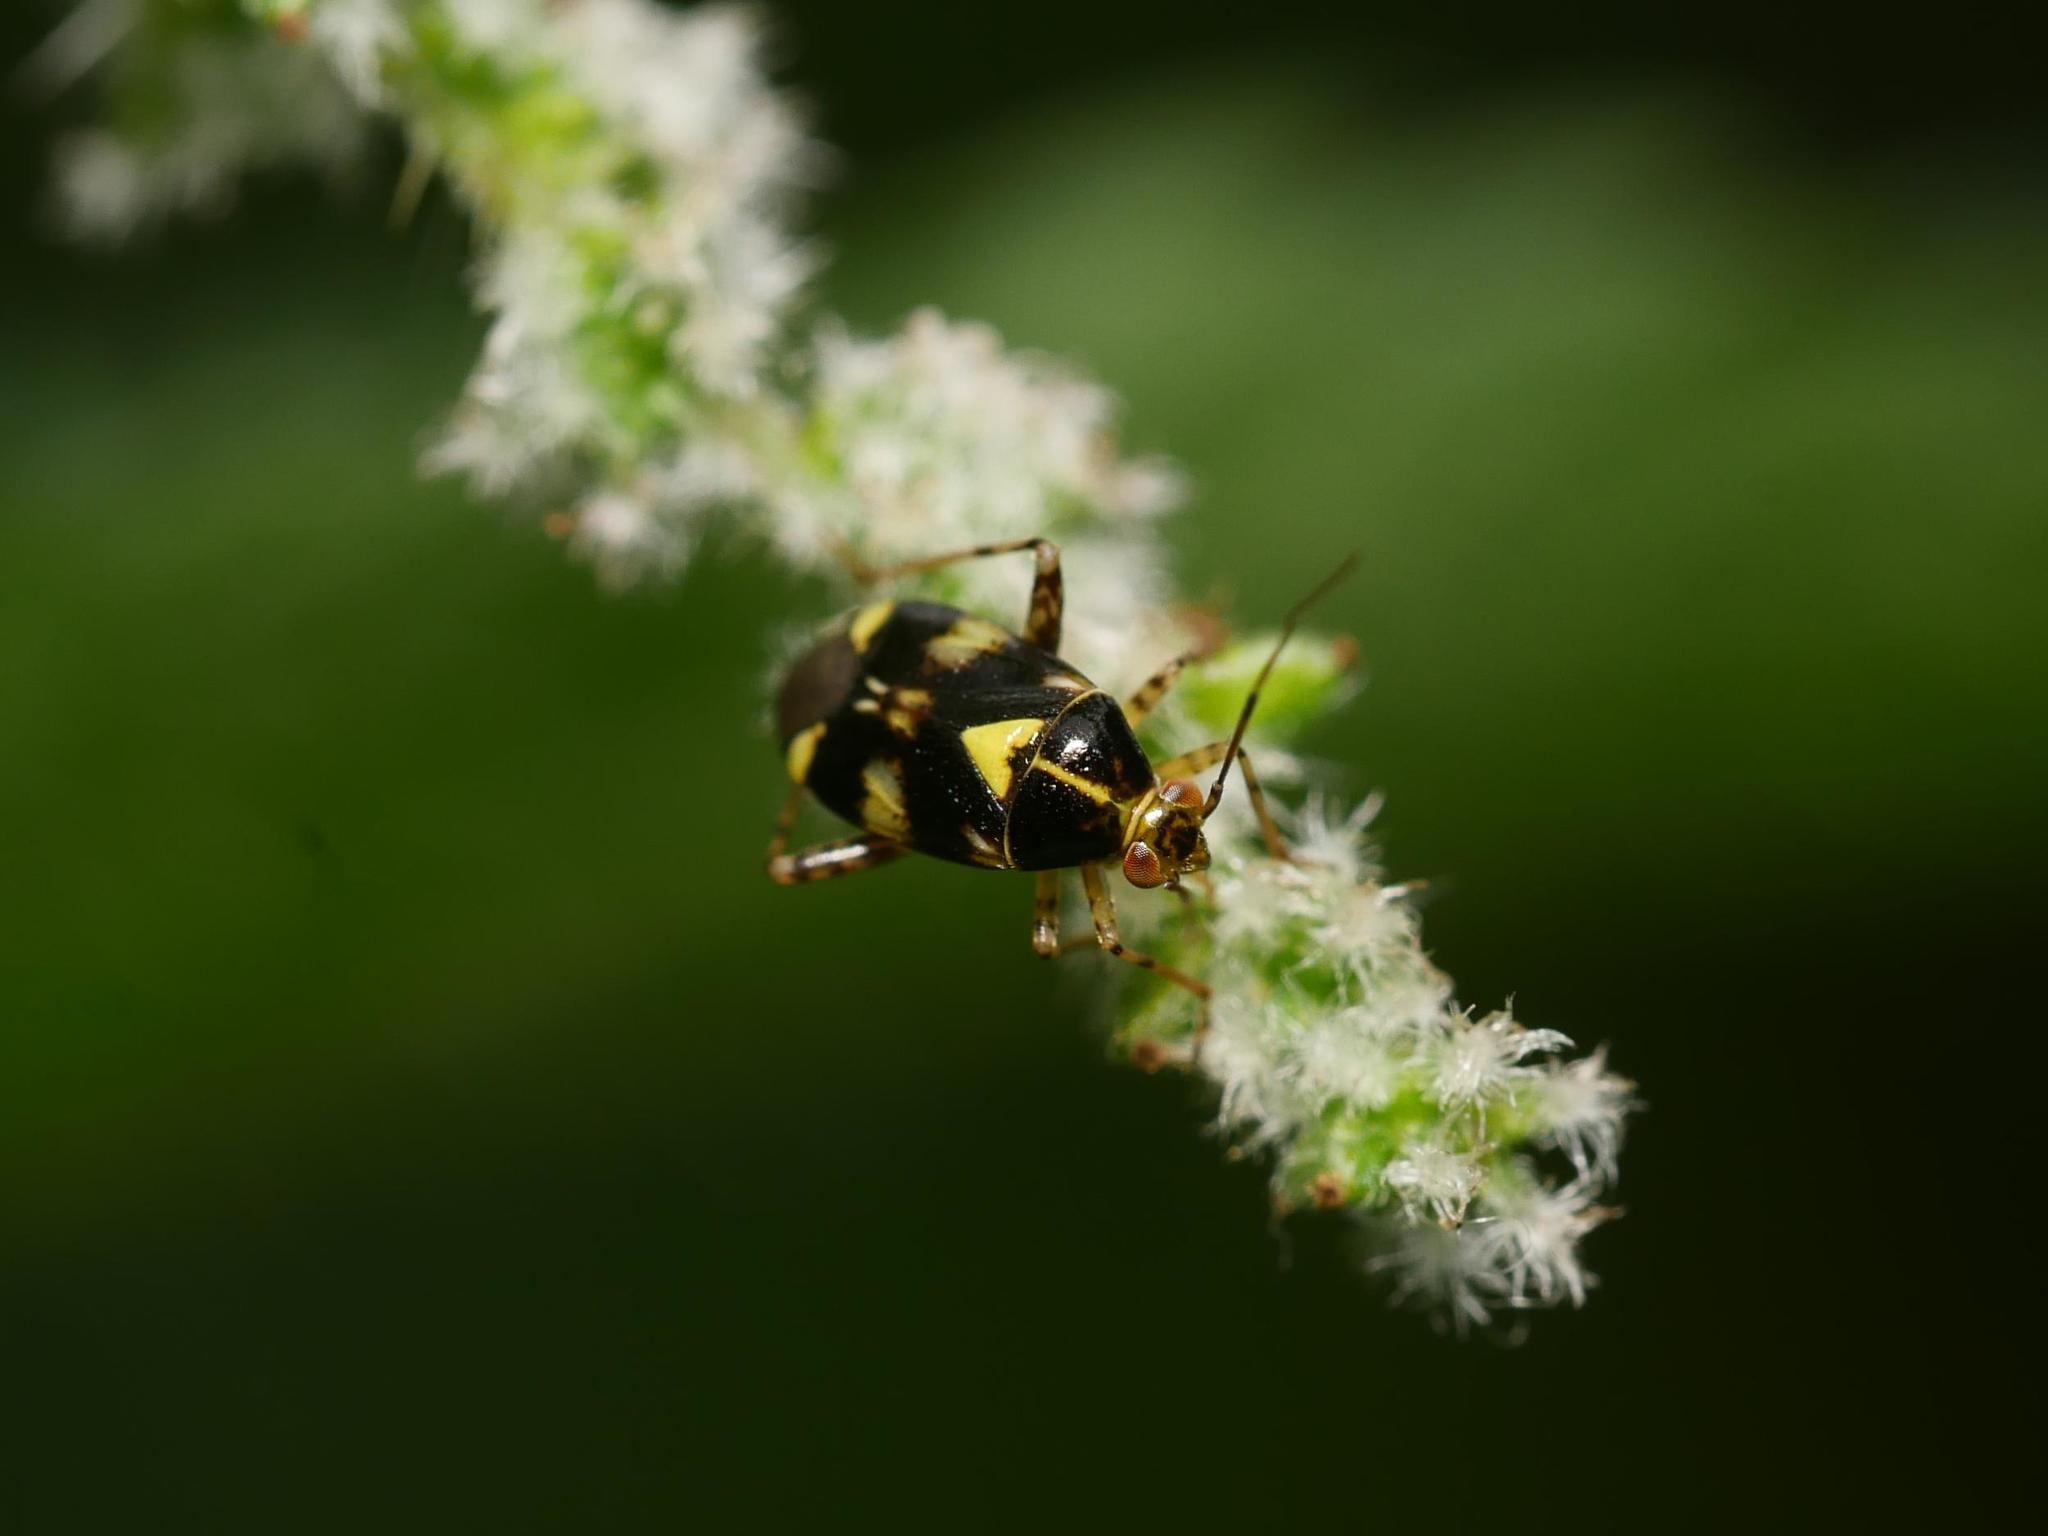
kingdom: Animalia
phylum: Arthropoda
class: Insecta
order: Hemiptera
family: Miridae
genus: Liocoris
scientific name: Liocoris tripustulatus
